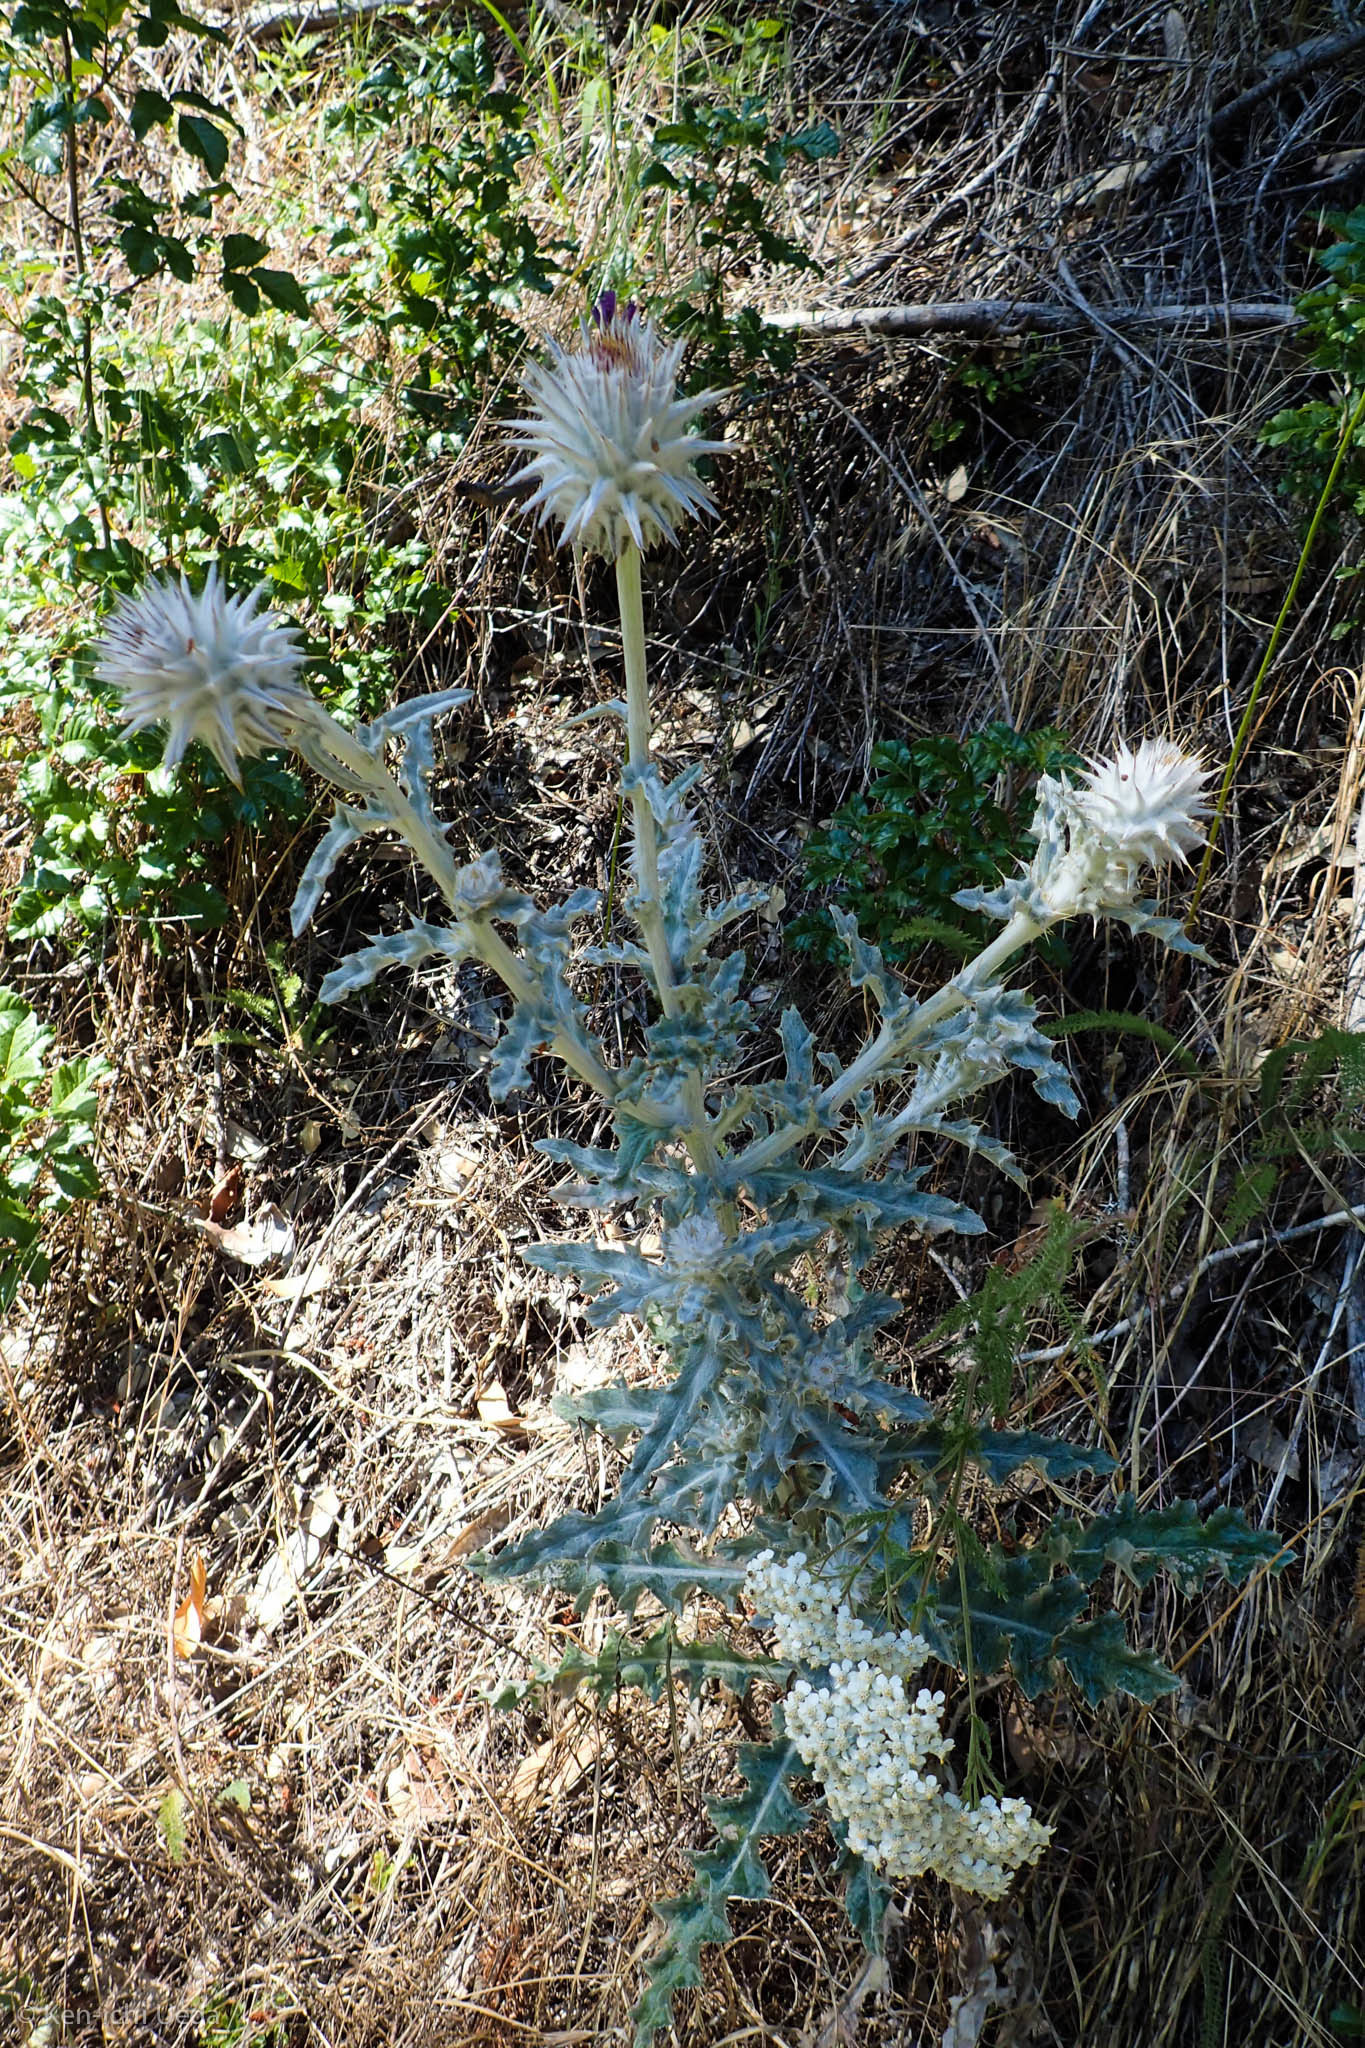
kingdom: Plantae
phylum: Tracheophyta
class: Magnoliopsida
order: Asterales
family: Asteraceae
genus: Cirsium
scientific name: Cirsium occidentale
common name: Western thistle
